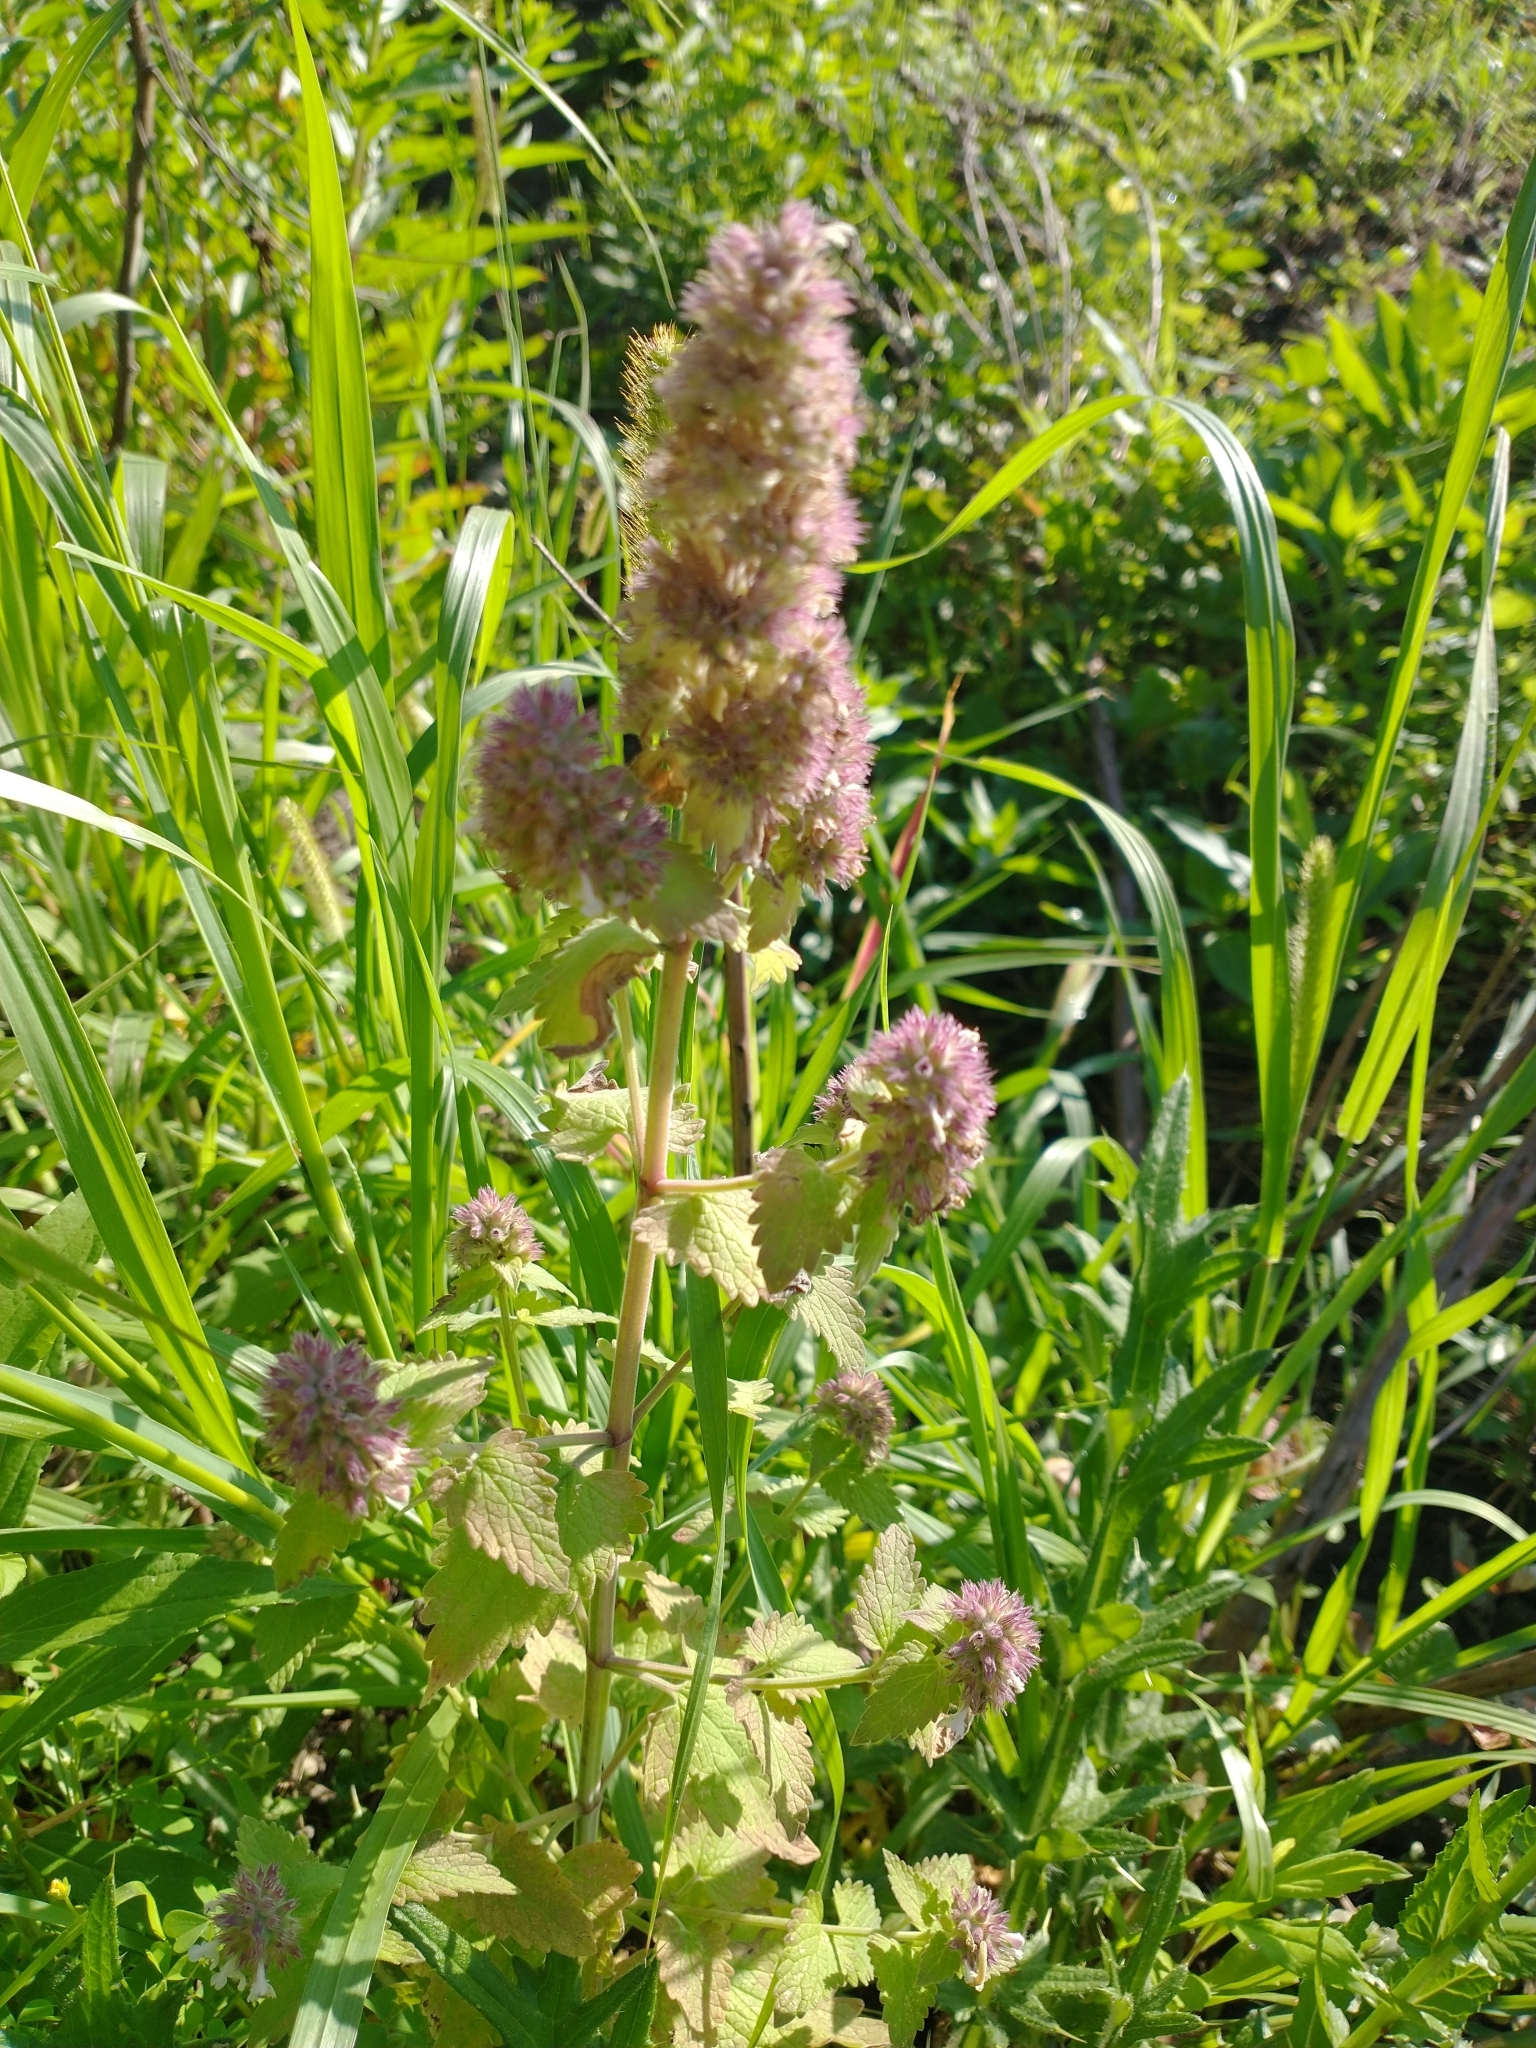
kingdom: Plantae
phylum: Tracheophyta
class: Magnoliopsida
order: Lamiales
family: Lamiaceae
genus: Nepeta
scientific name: Nepeta cataria
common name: Catnip
